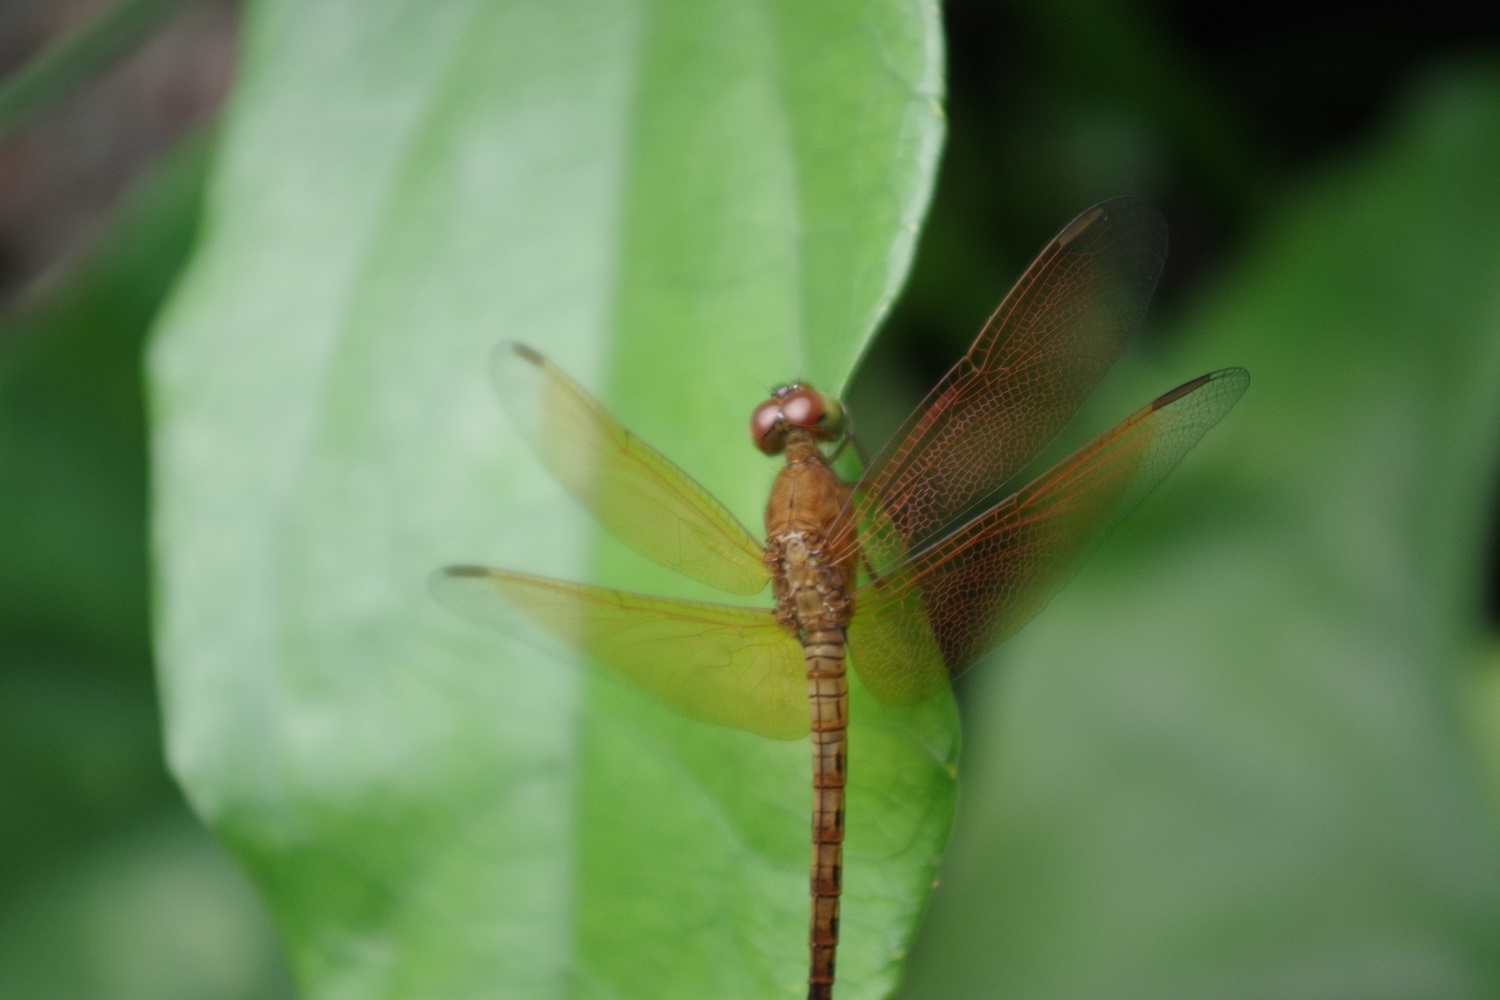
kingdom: Animalia
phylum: Arthropoda
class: Insecta
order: Odonata
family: Libellulidae
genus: Neurothemis
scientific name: Neurothemis fluctuans
